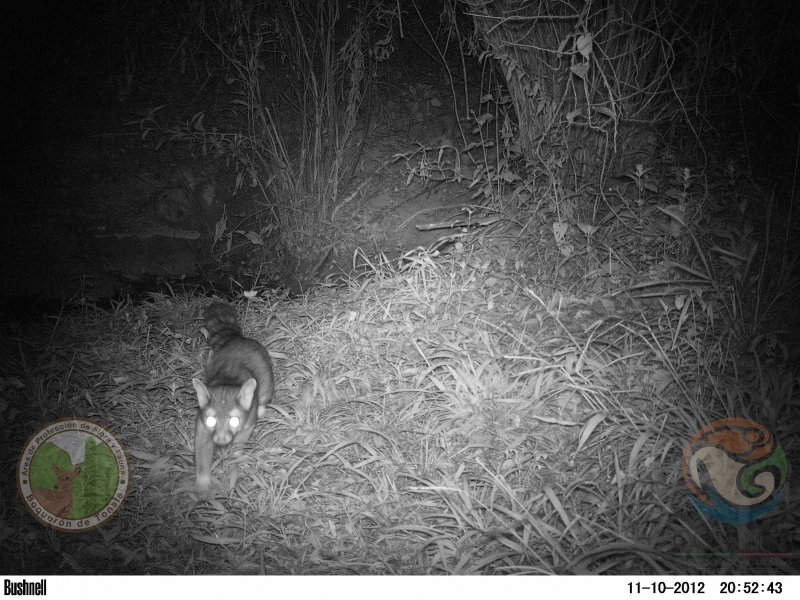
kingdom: Animalia
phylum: Chordata
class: Mammalia
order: Carnivora
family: Procyonidae
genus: Bassariscus
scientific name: Bassariscus astutus
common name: Ringtail
